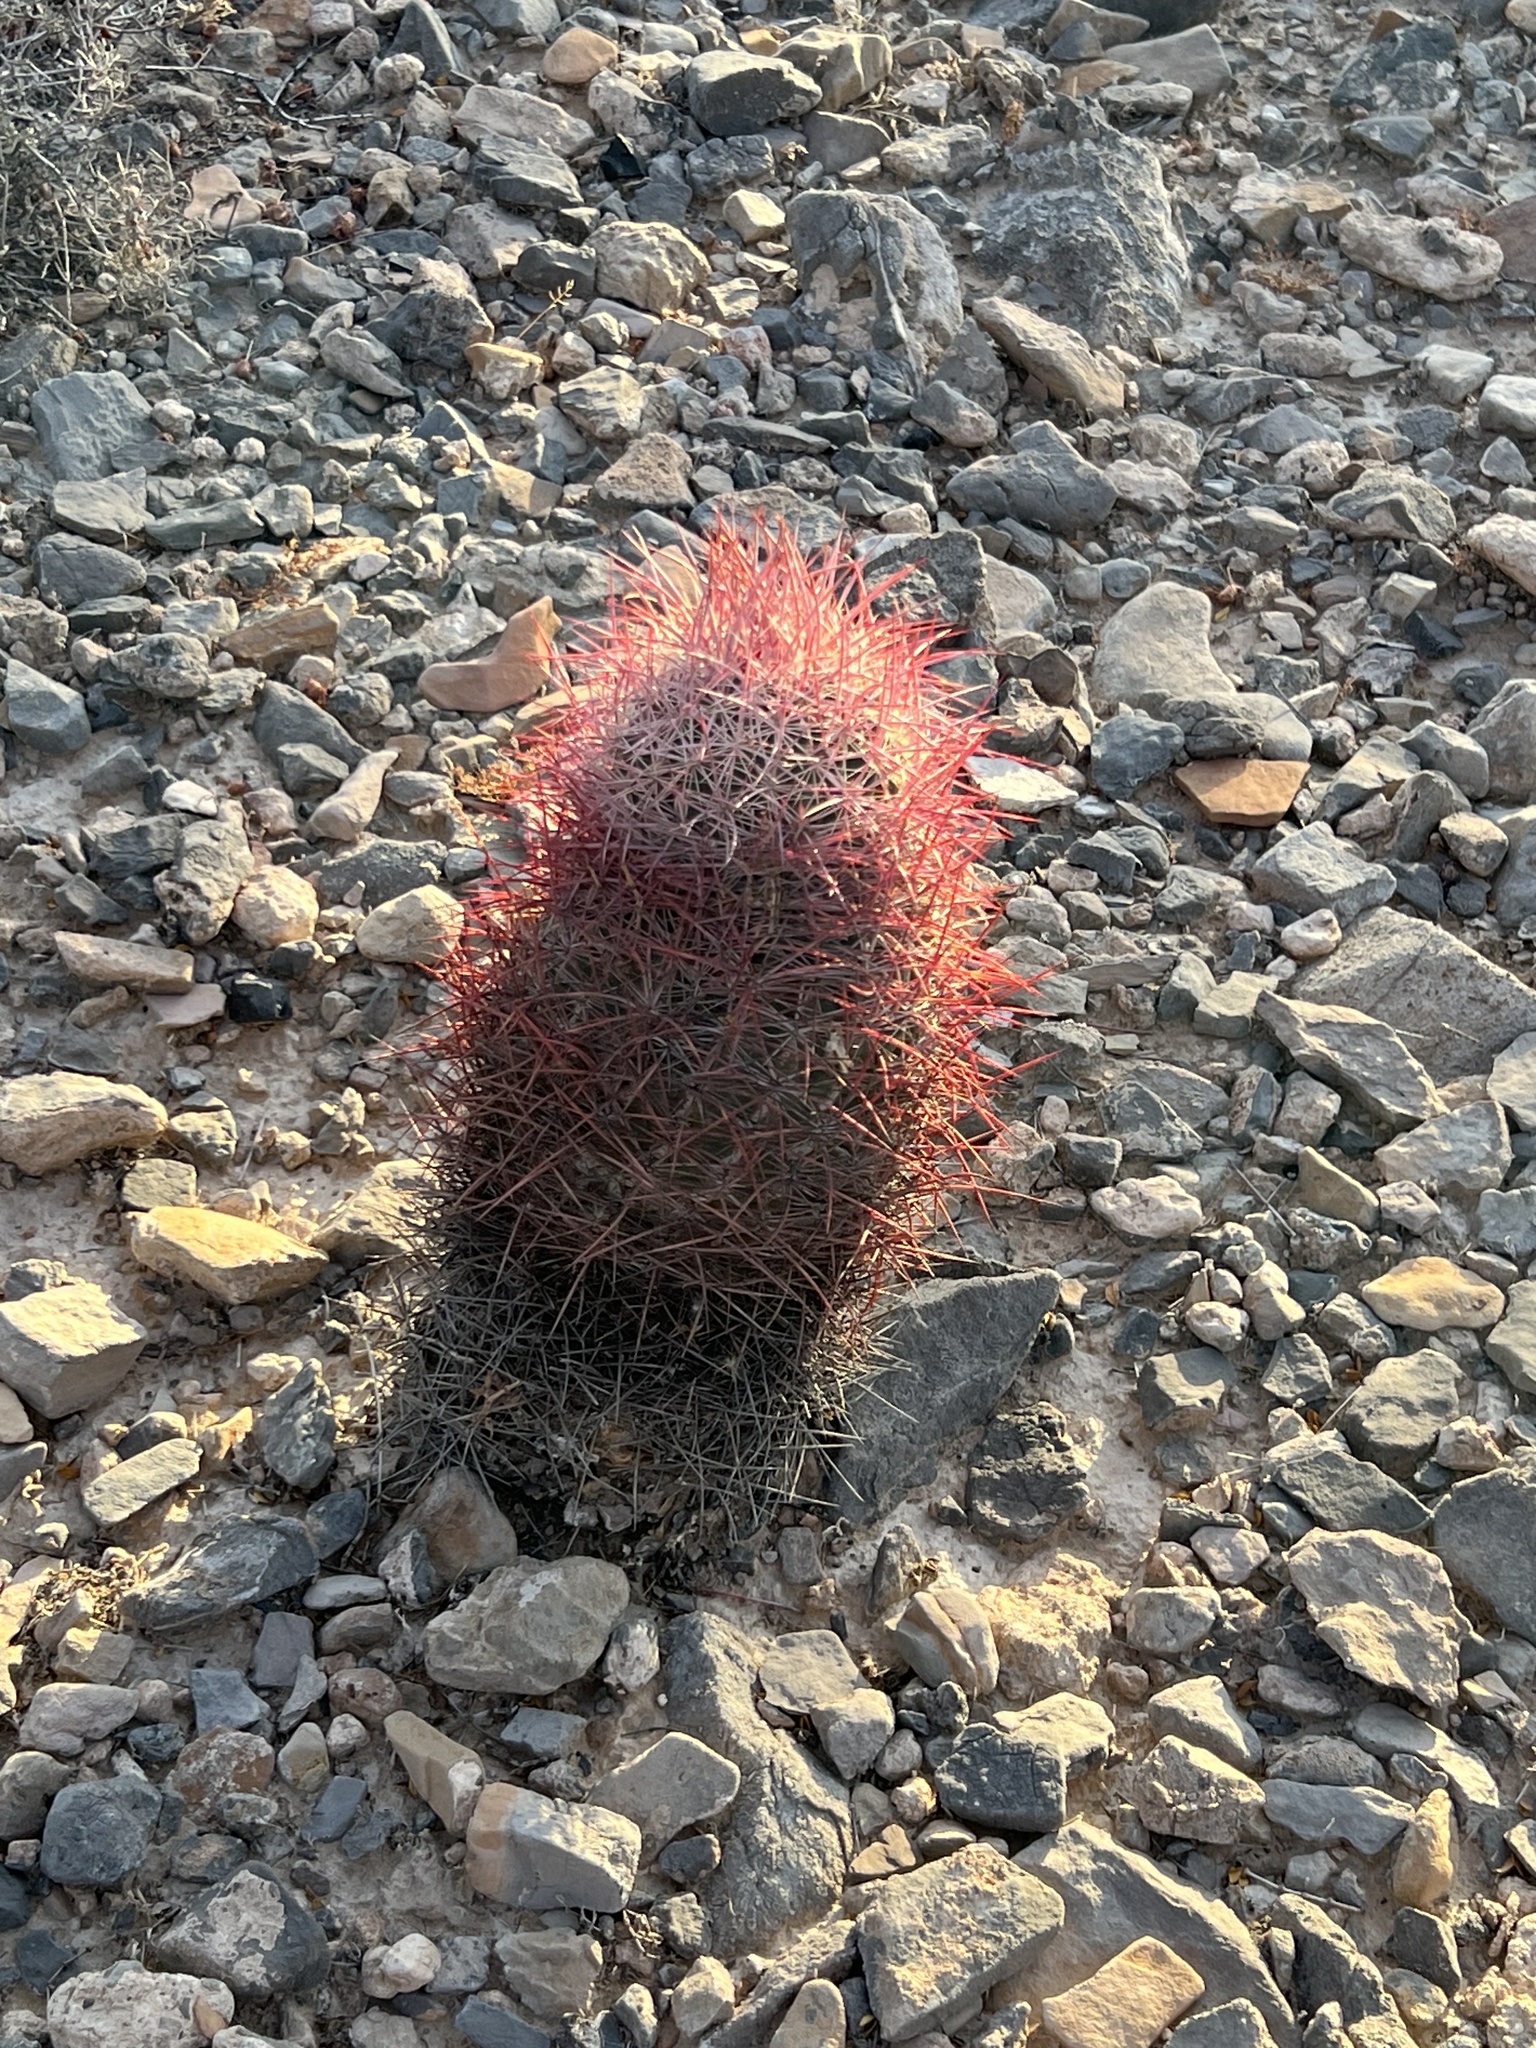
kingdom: Plantae
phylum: Tracheophyta
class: Magnoliopsida
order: Caryophyllales
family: Cactaceae
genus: Sclerocactus
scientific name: Sclerocactus johnsonii
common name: Eight-spine fishhook cactus
